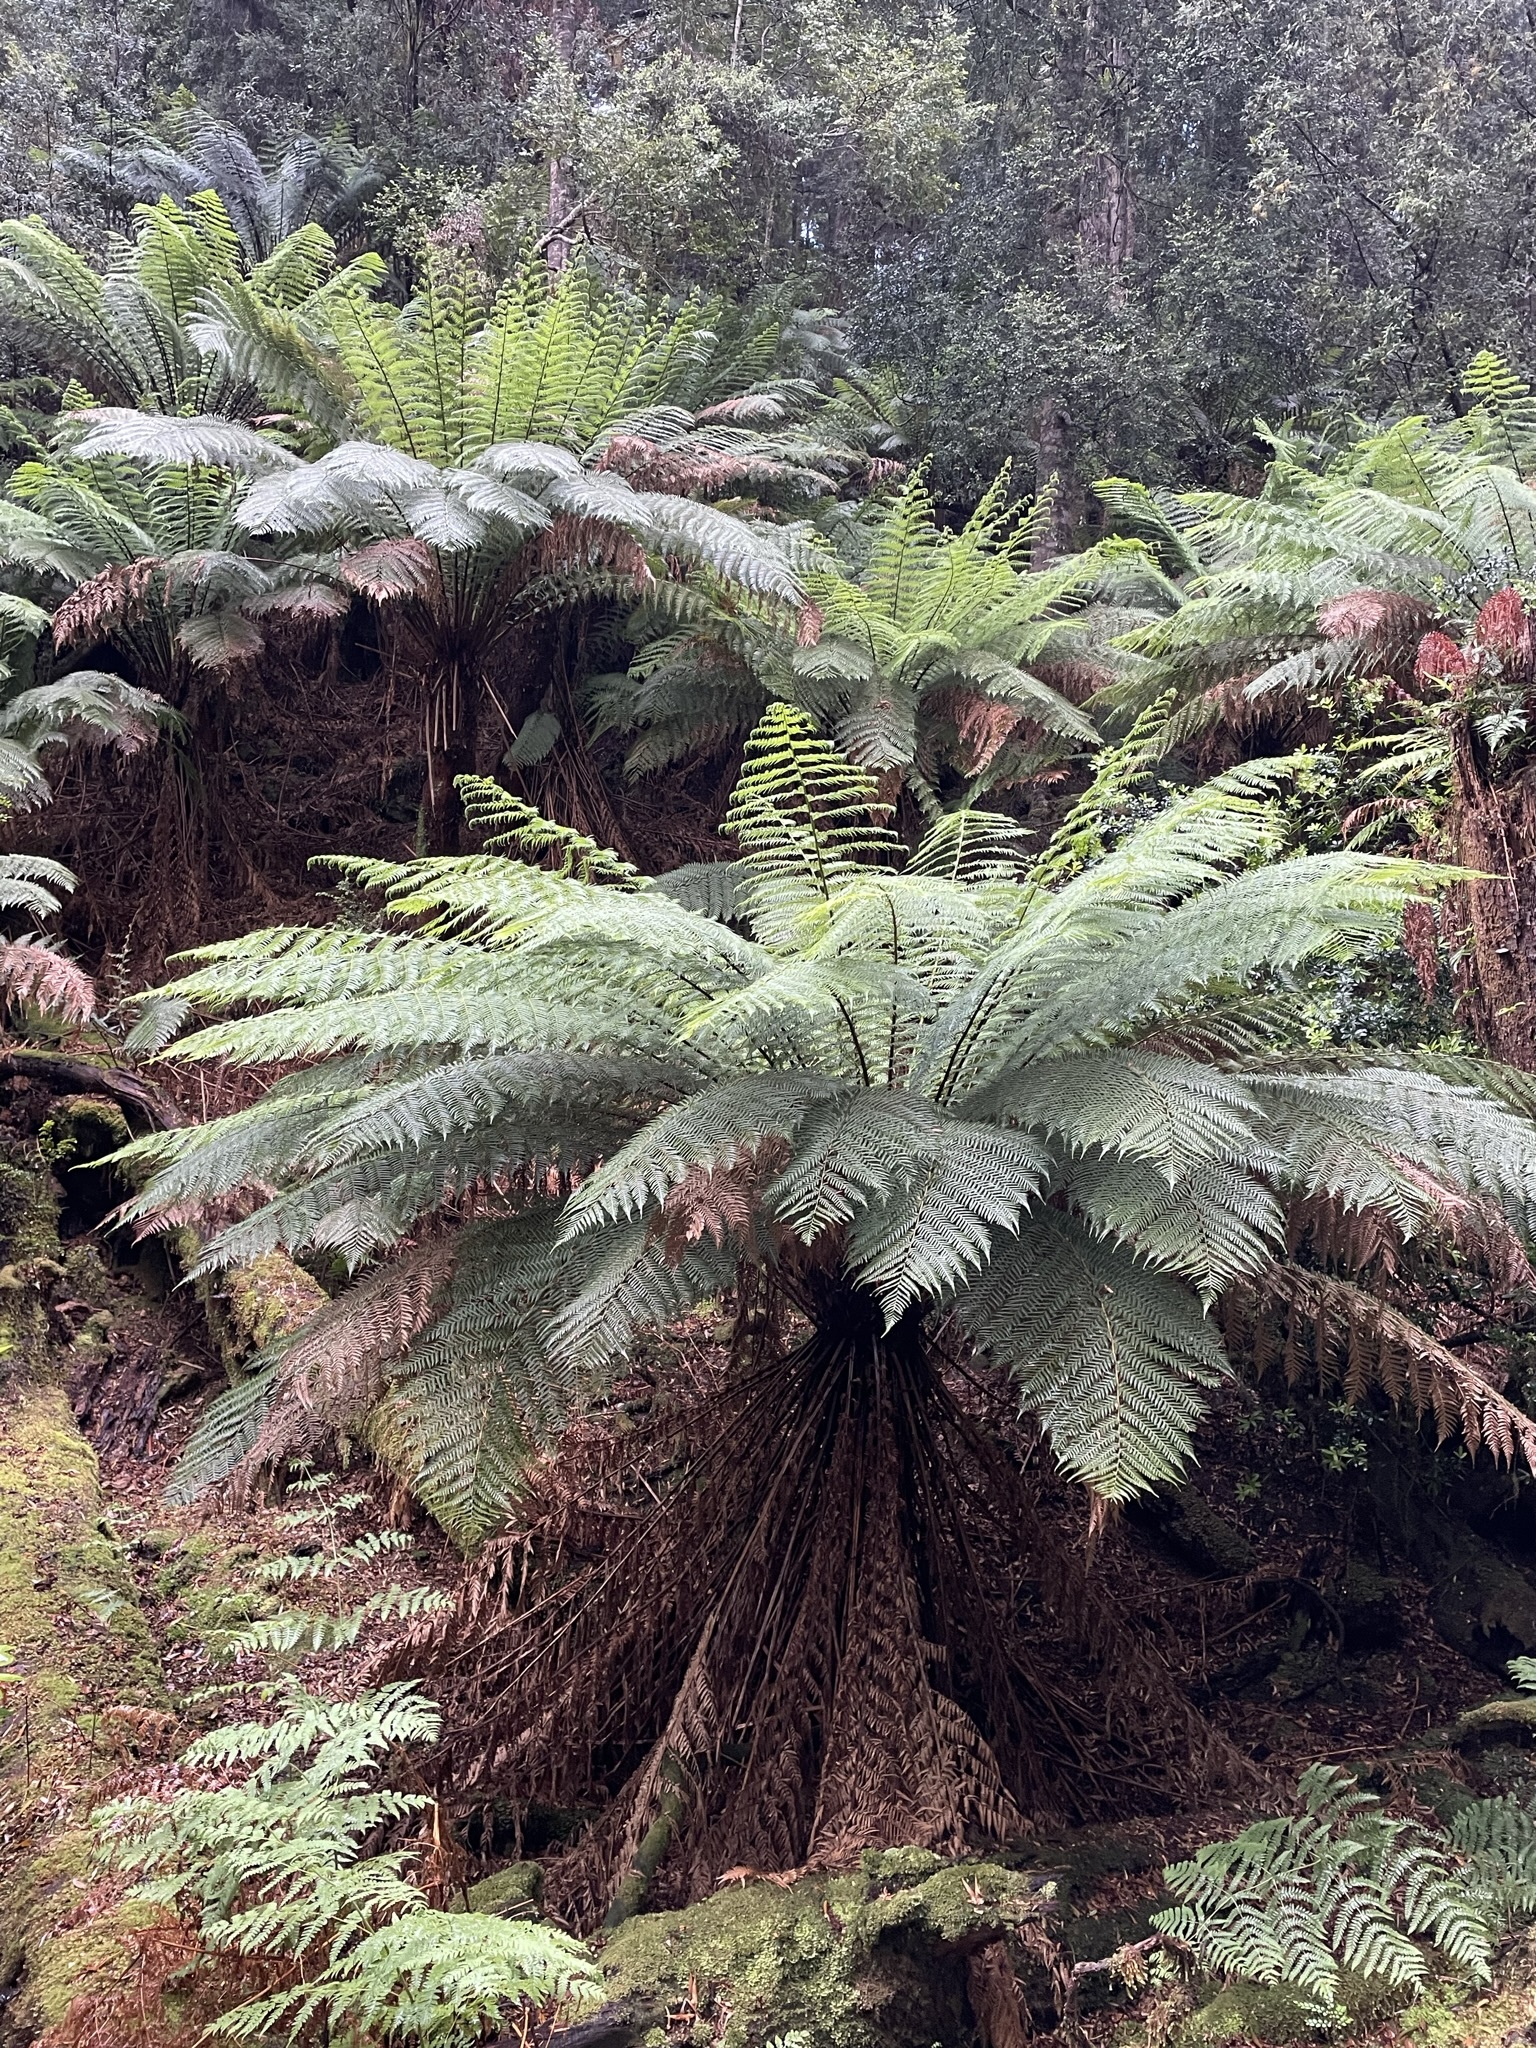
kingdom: Plantae
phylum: Tracheophyta
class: Polypodiopsida
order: Cyatheales
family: Dicksoniaceae
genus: Dicksonia
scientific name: Dicksonia antarctica
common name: Australian treefern
